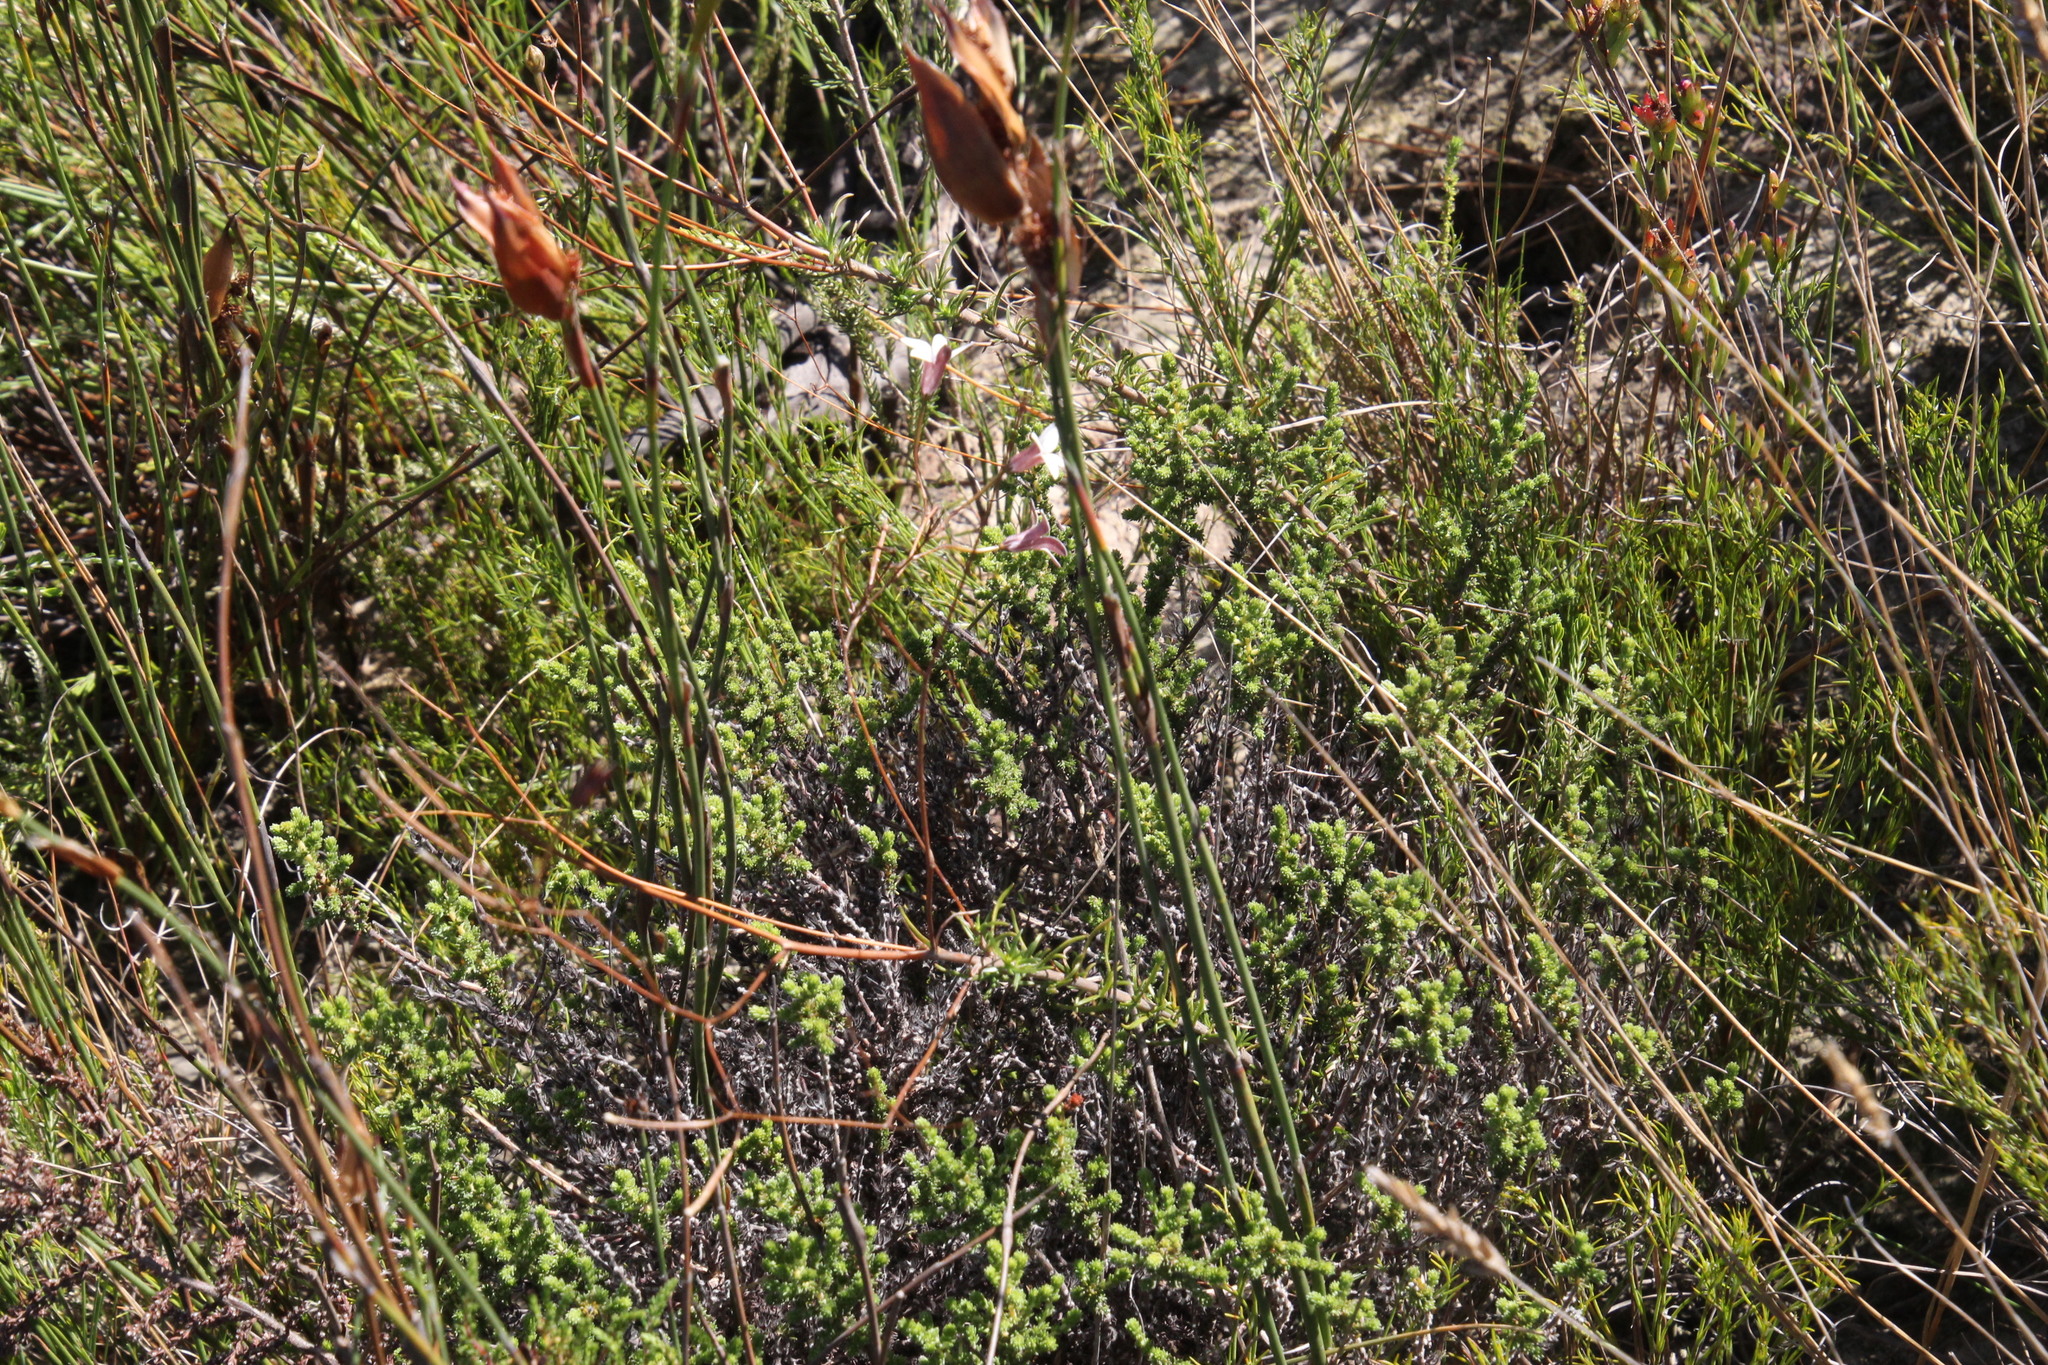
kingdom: Plantae
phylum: Tracheophyta
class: Magnoliopsida
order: Asterales
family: Campanulaceae
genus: Prismatocarpus
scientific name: Prismatocarpus fruticosus
